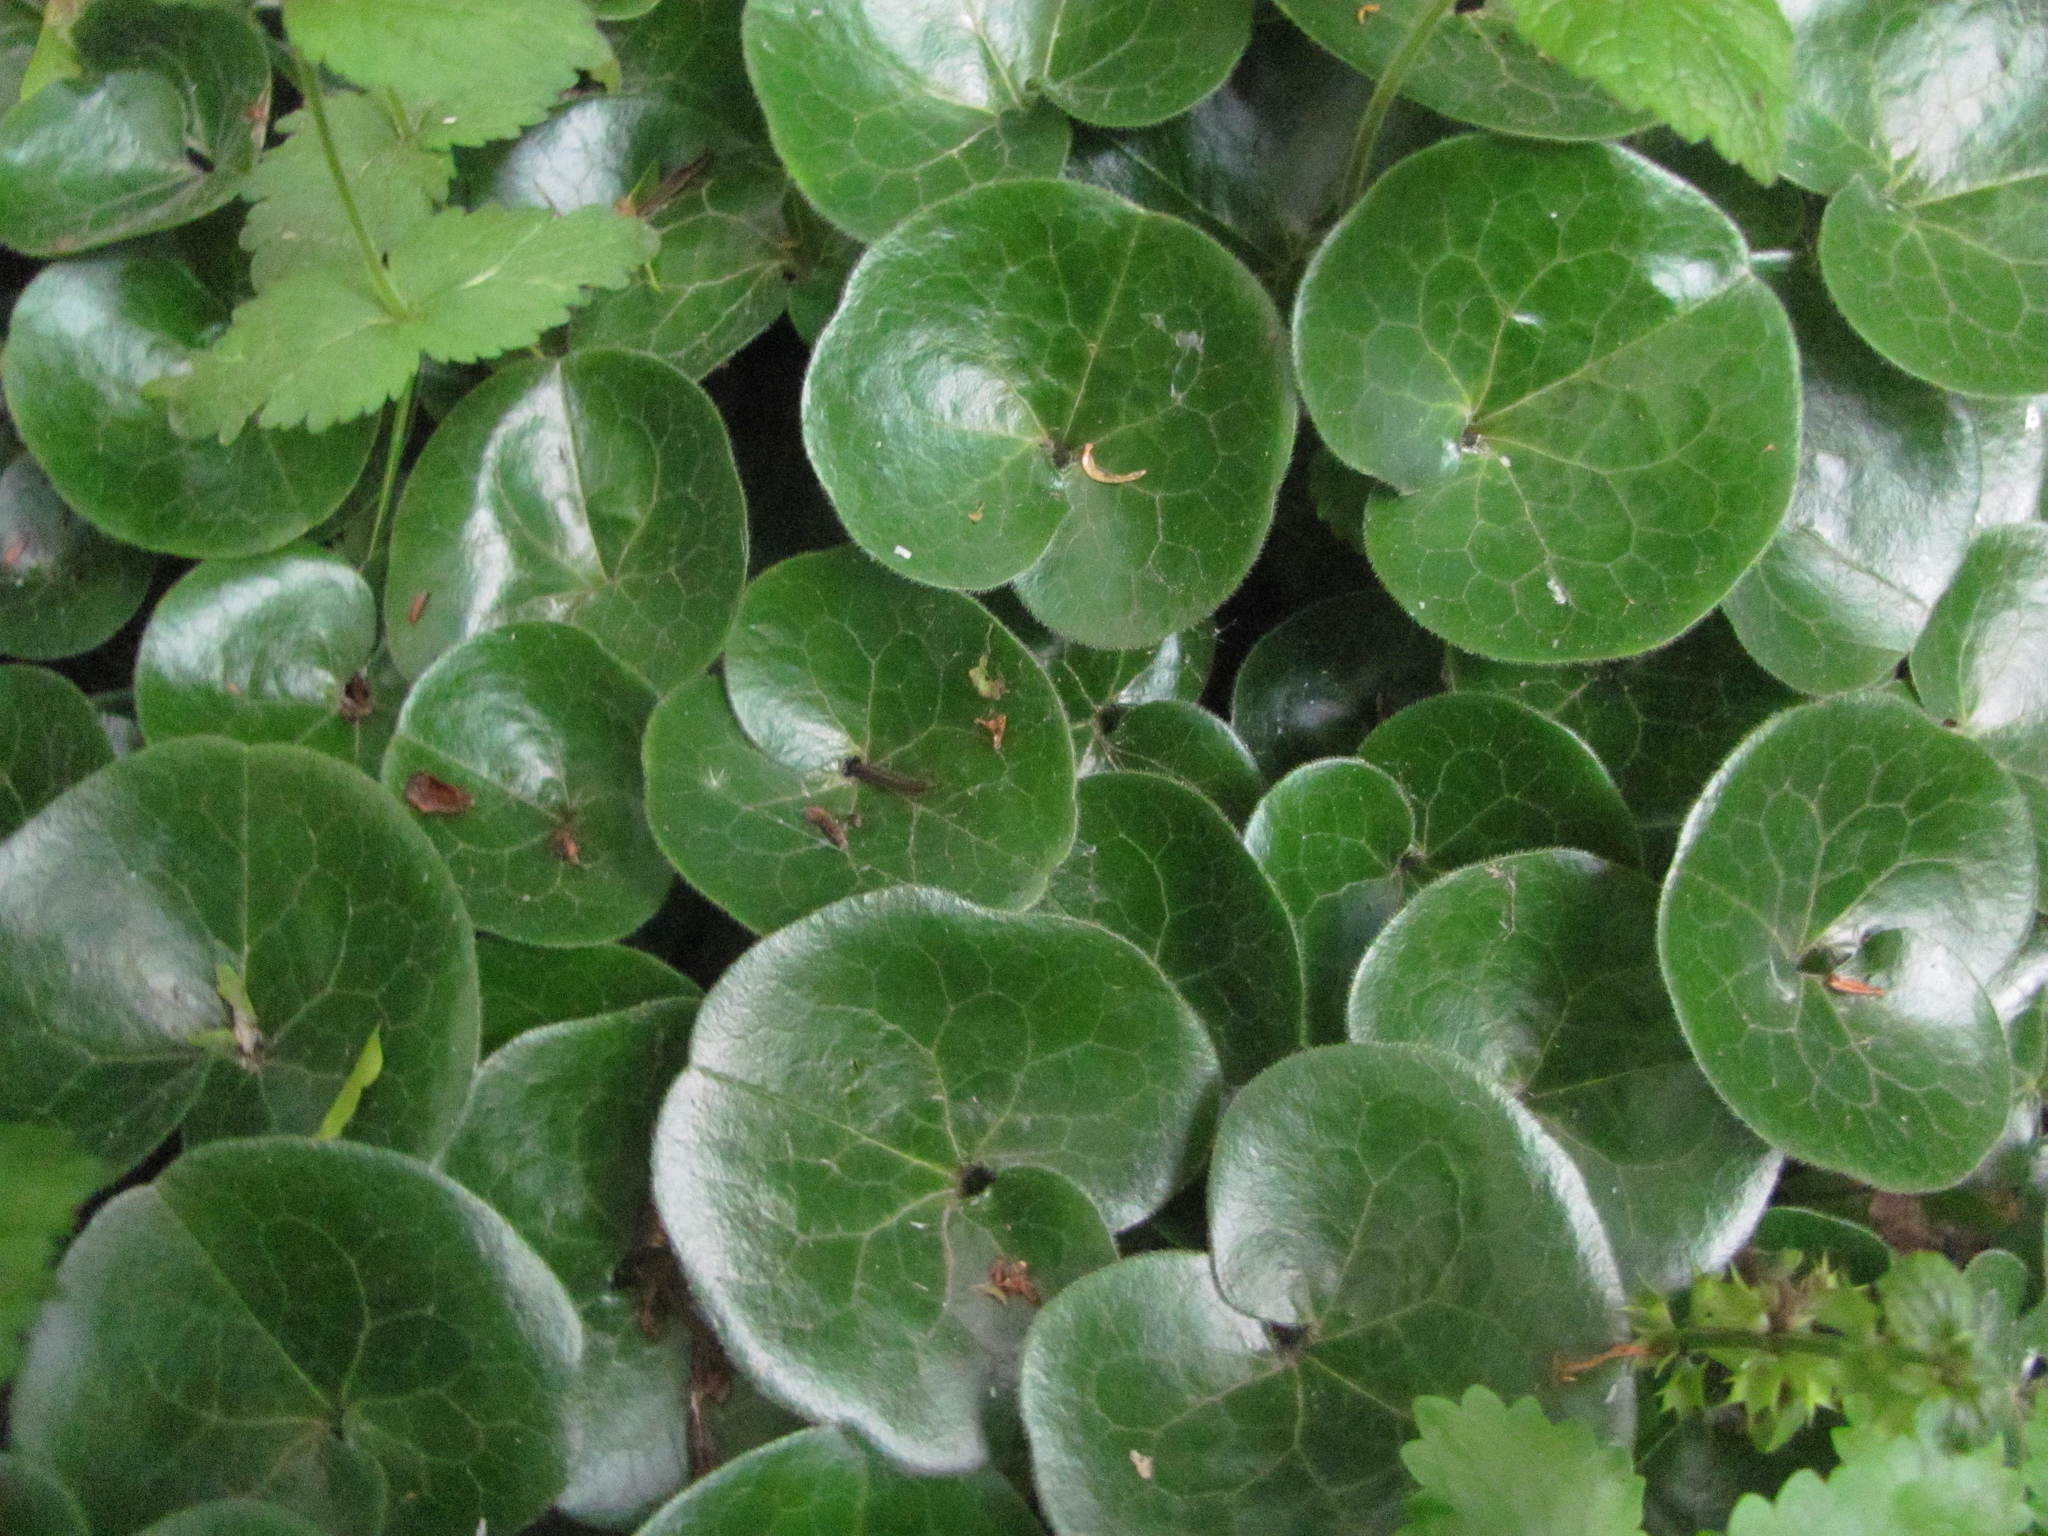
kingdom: Plantae
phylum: Tracheophyta
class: Magnoliopsida
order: Piperales
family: Aristolochiaceae
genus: Asarum
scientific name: Asarum europaeum
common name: Asarabacca
